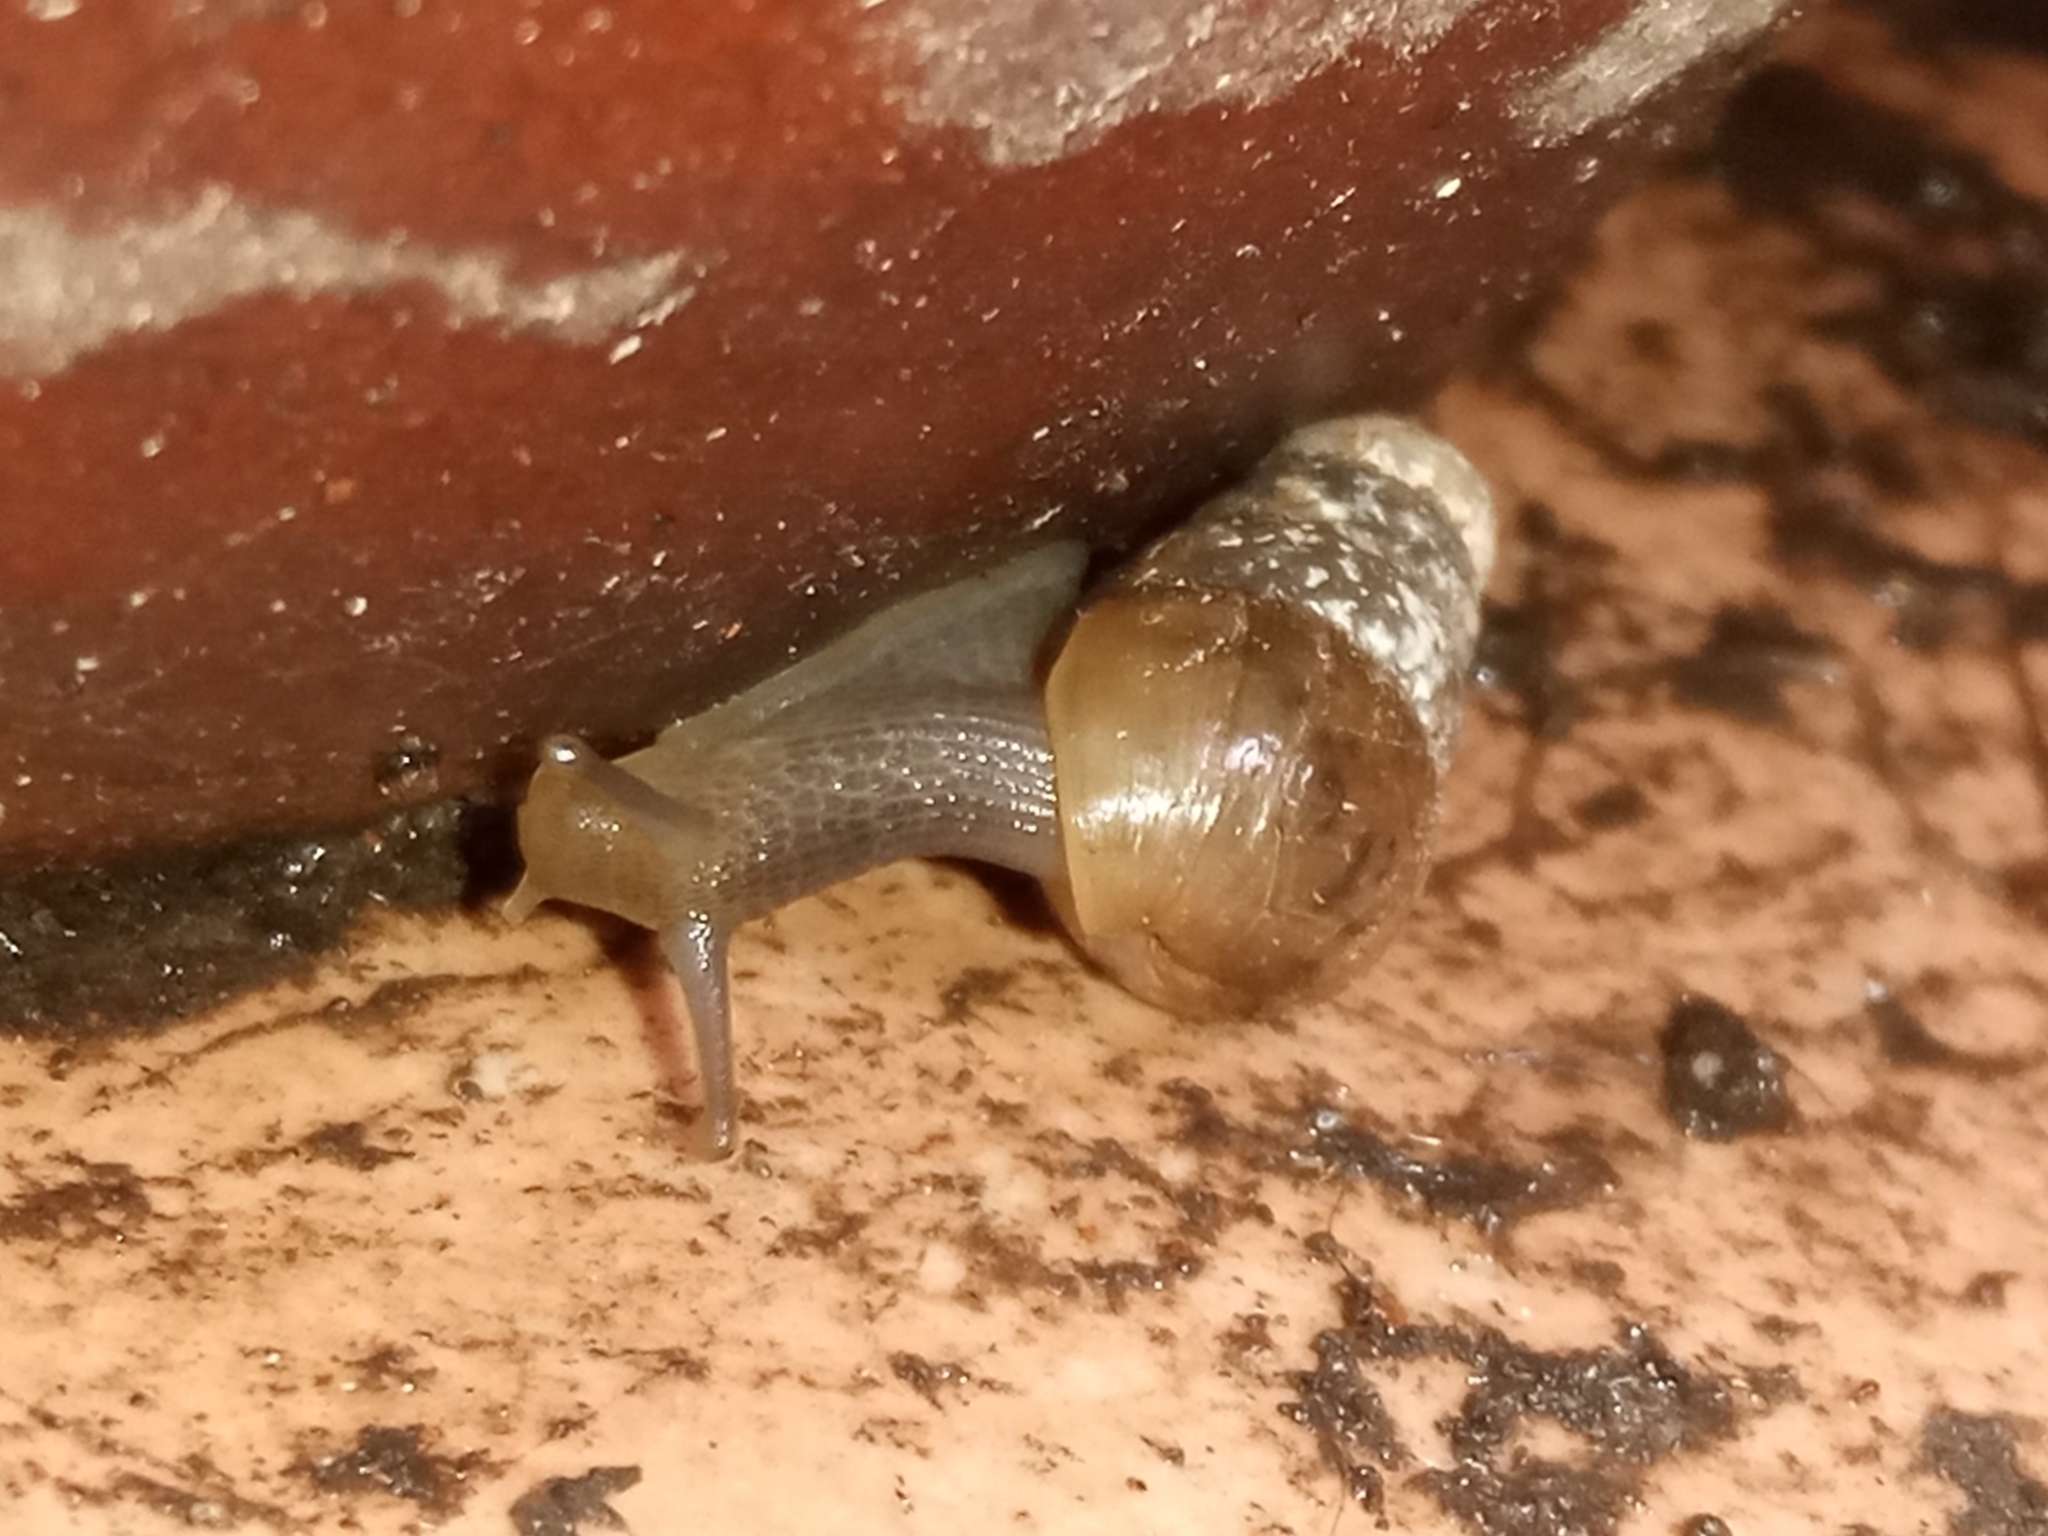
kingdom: Animalia
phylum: Mollusca
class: Gastropoda
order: Stylommatophora
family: Achatinidae
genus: Rumina
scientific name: Rumina decollata
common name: Decollate snail
